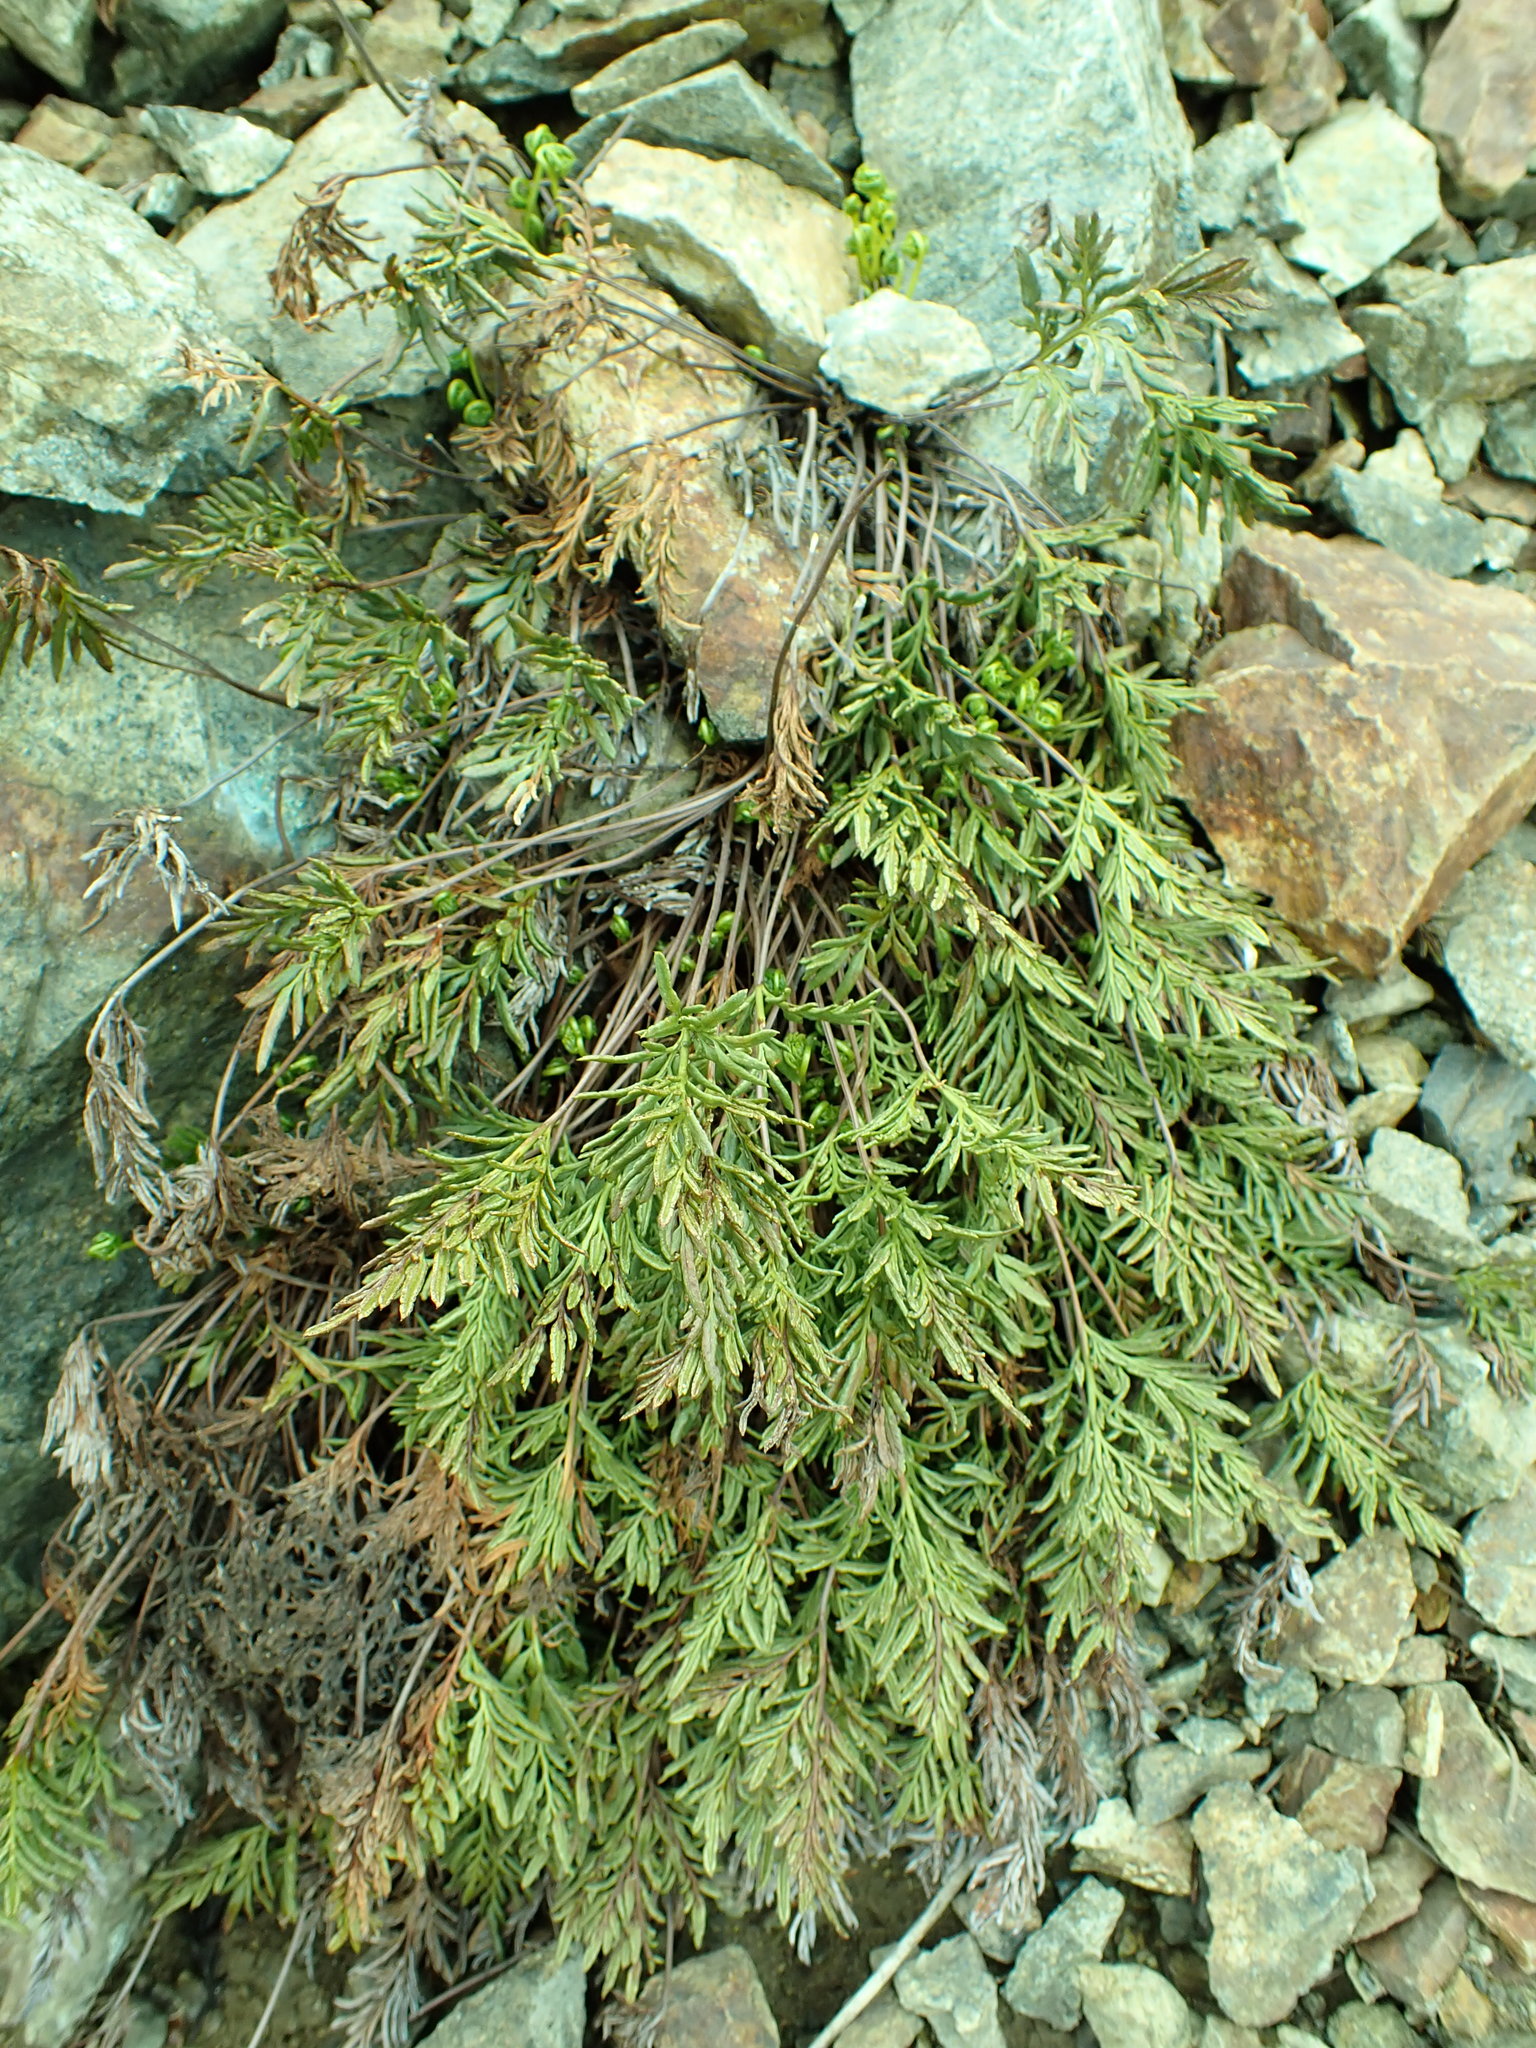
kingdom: Plantae
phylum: Tracheophyta
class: Polypodiopsida
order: Polypodiales
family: Pteridaceae
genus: Aspidotis
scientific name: Aspidotis densa
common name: Indian's dream
